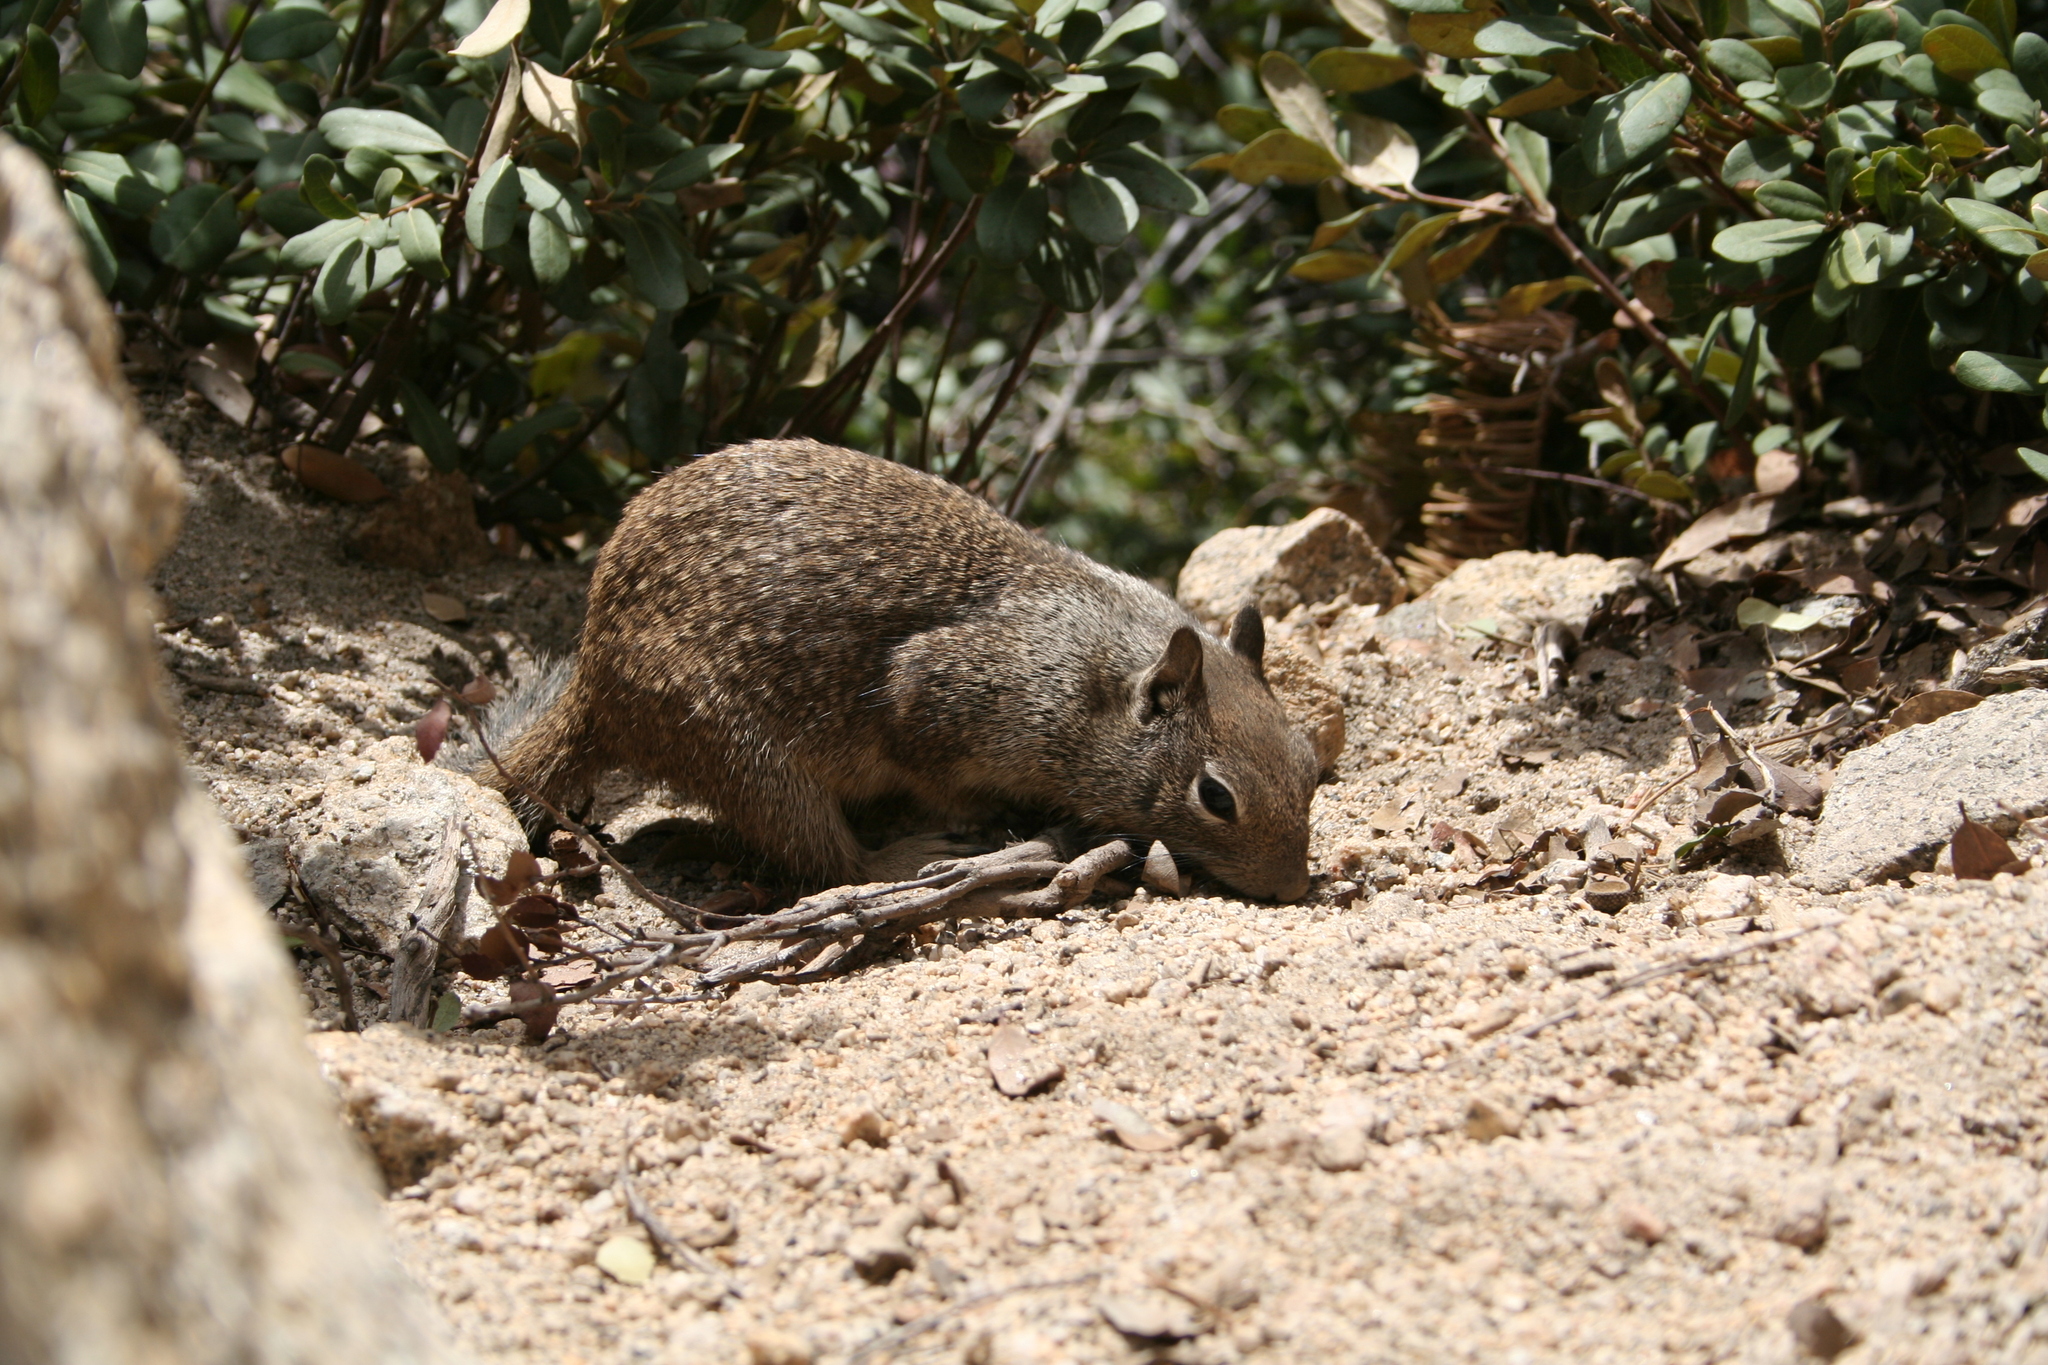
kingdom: Animalia
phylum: Chordata
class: Mammalia
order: Rodentia
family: Sciuridae
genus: Otospermophilus
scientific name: Otospermophilus beecheyi
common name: California ground squirrel
